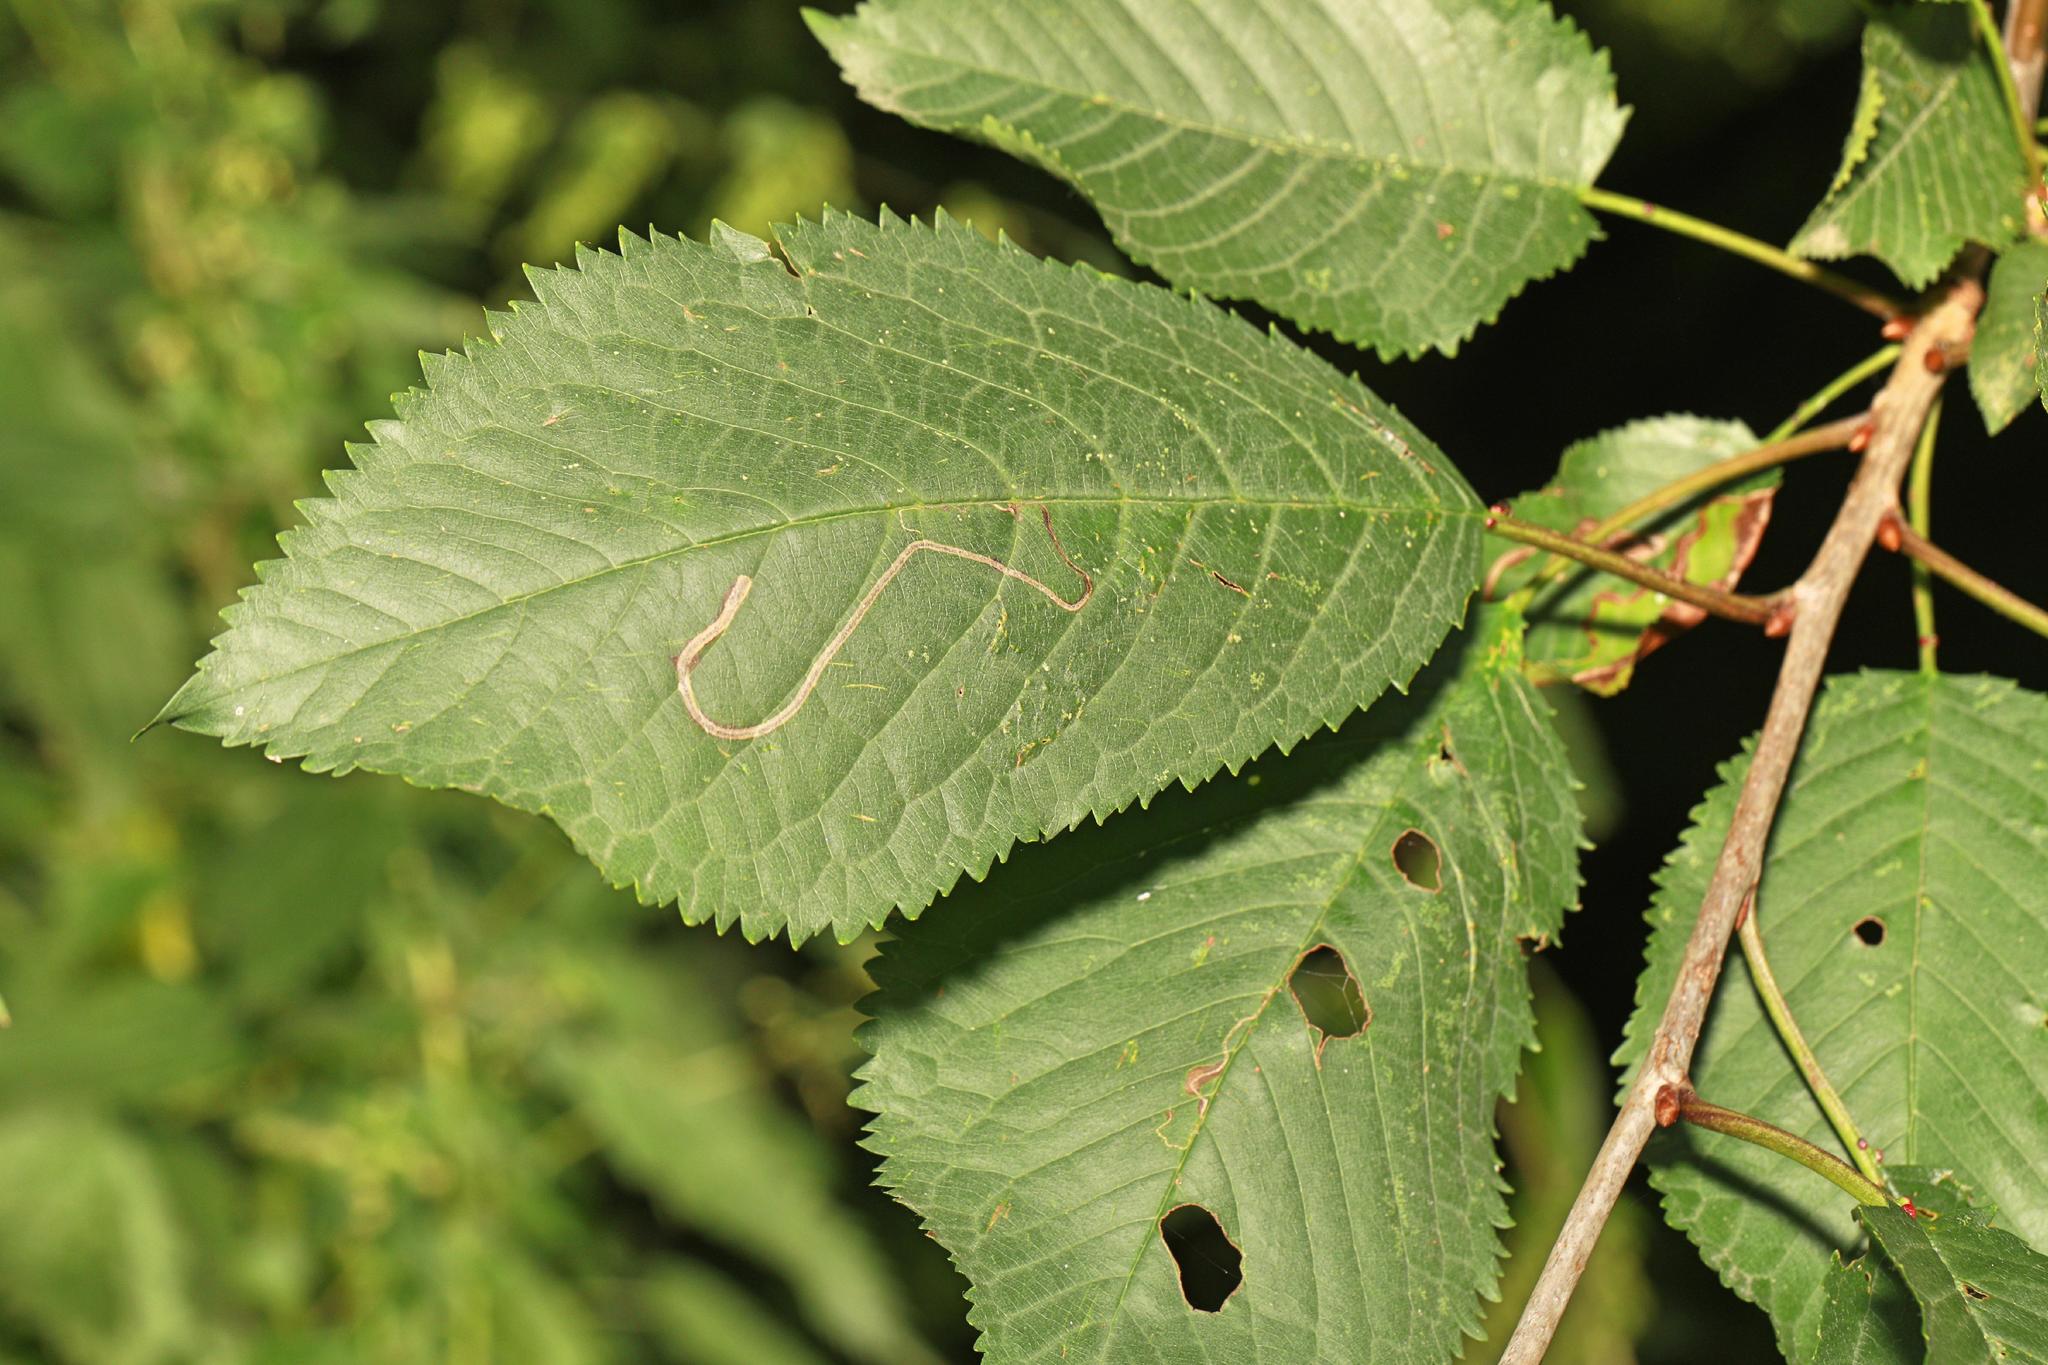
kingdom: Animalia
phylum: Arthropoda
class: Insecta
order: Lepidoptera
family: Lyonetiidae
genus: Lyonetia
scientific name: Lyonetia clerkella
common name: Apple leaf miner
